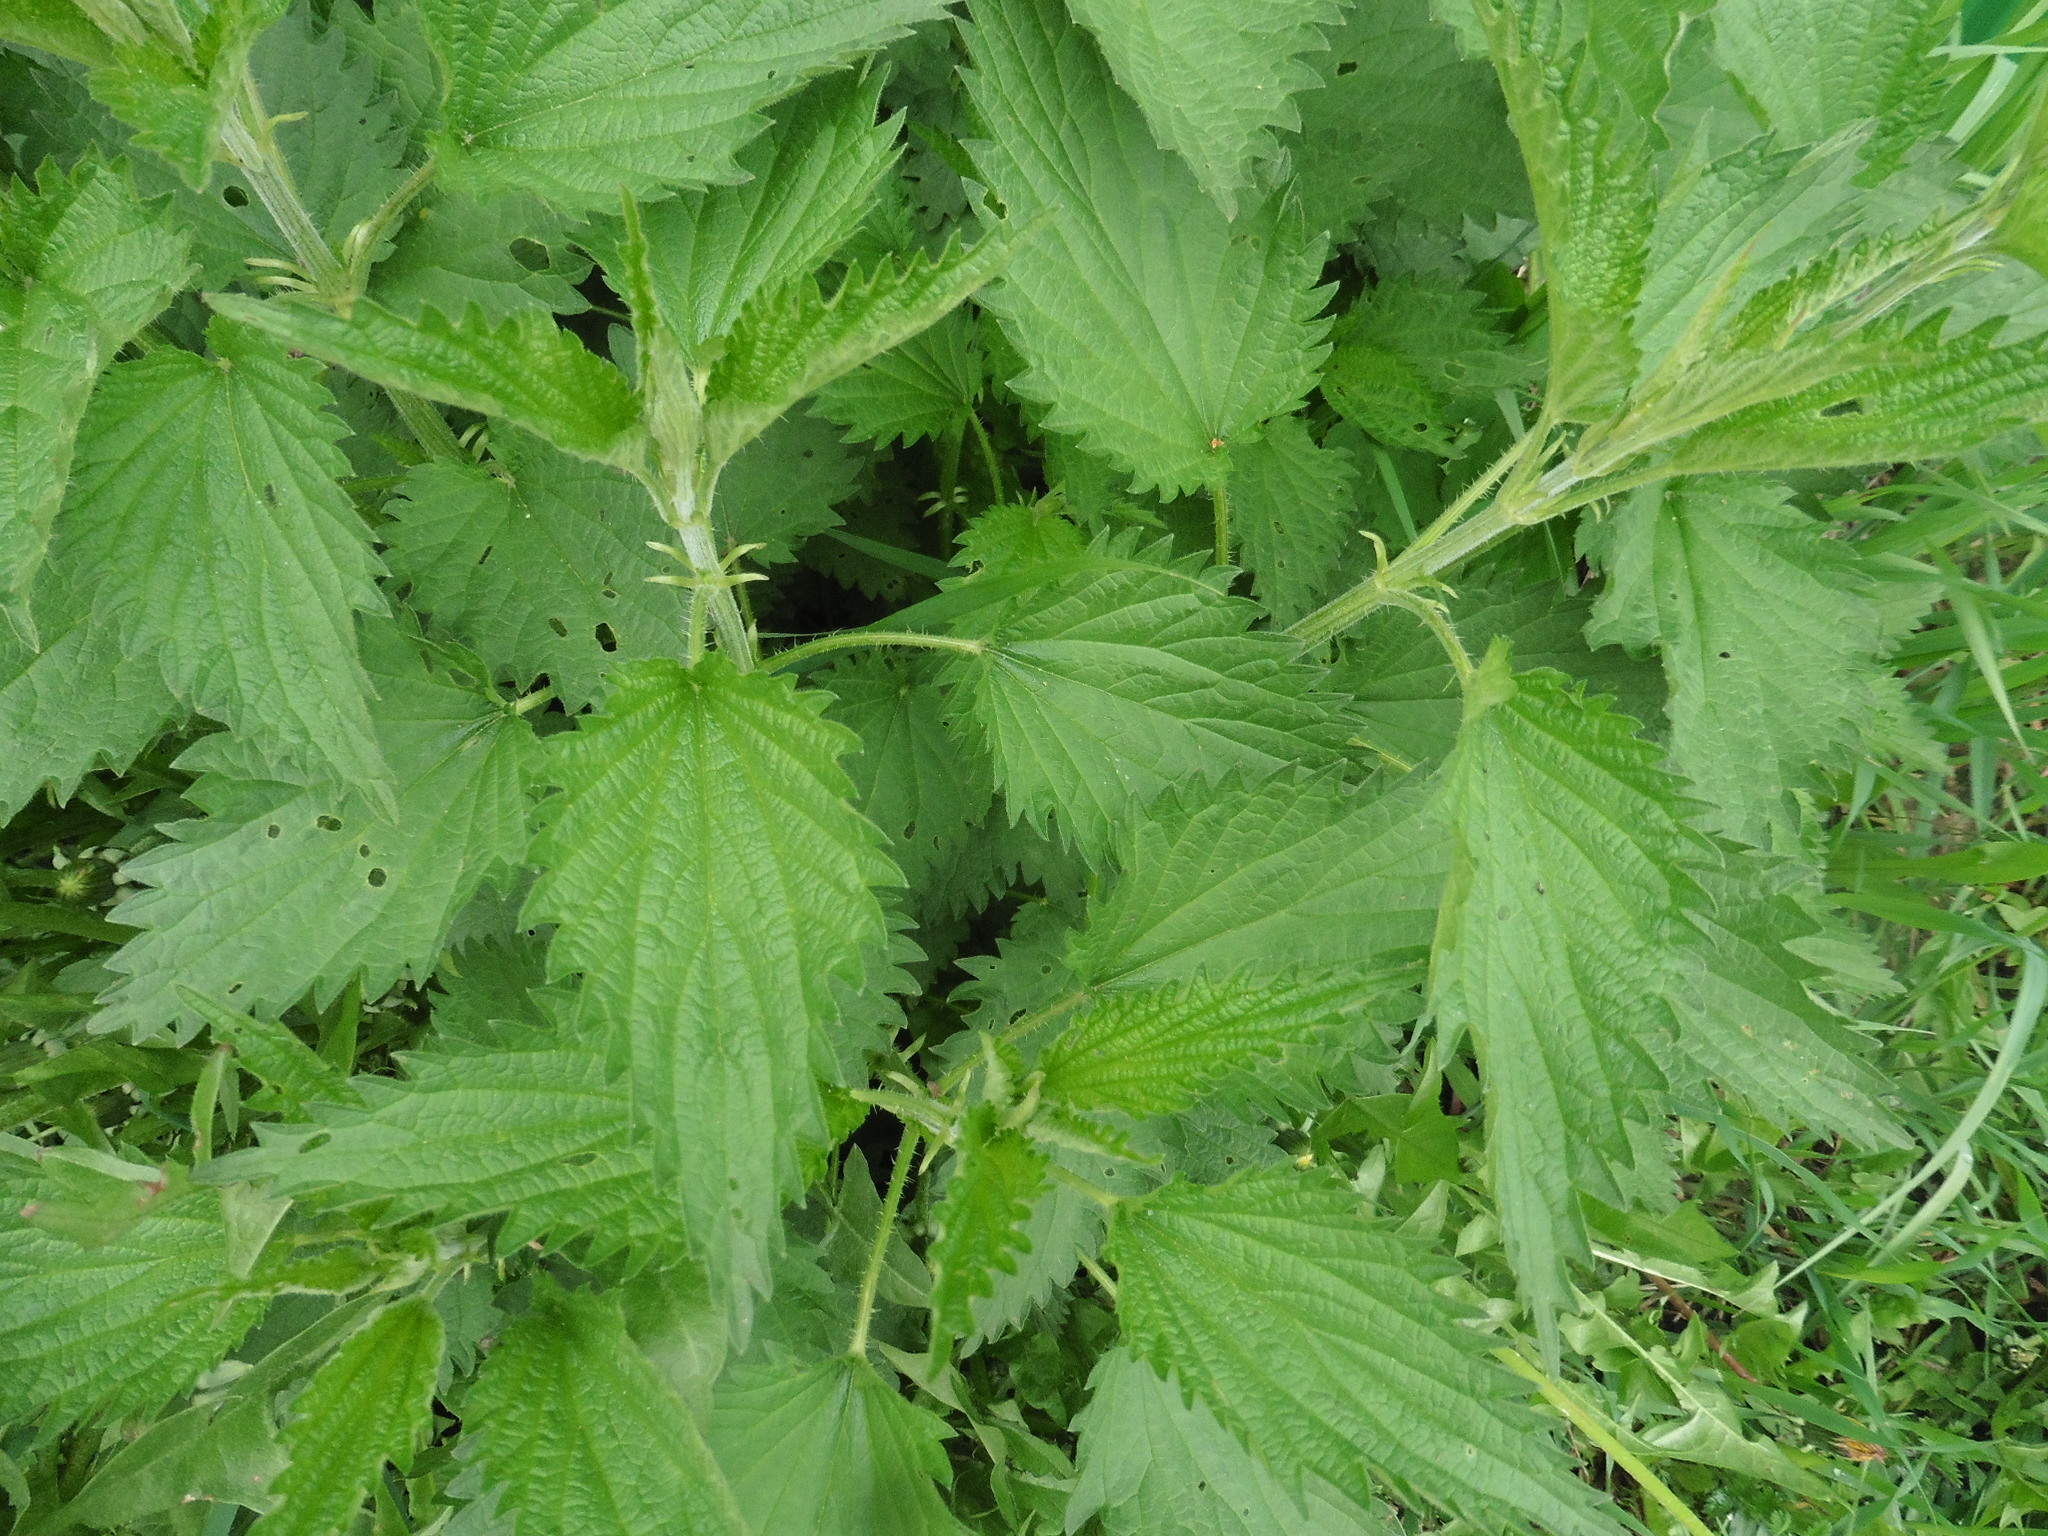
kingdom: Plantae
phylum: Tracheophyta
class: Magnoliopsida
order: Rosales
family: Urticaceae
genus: Urtica
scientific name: Urtica dioica
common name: Common nettle
